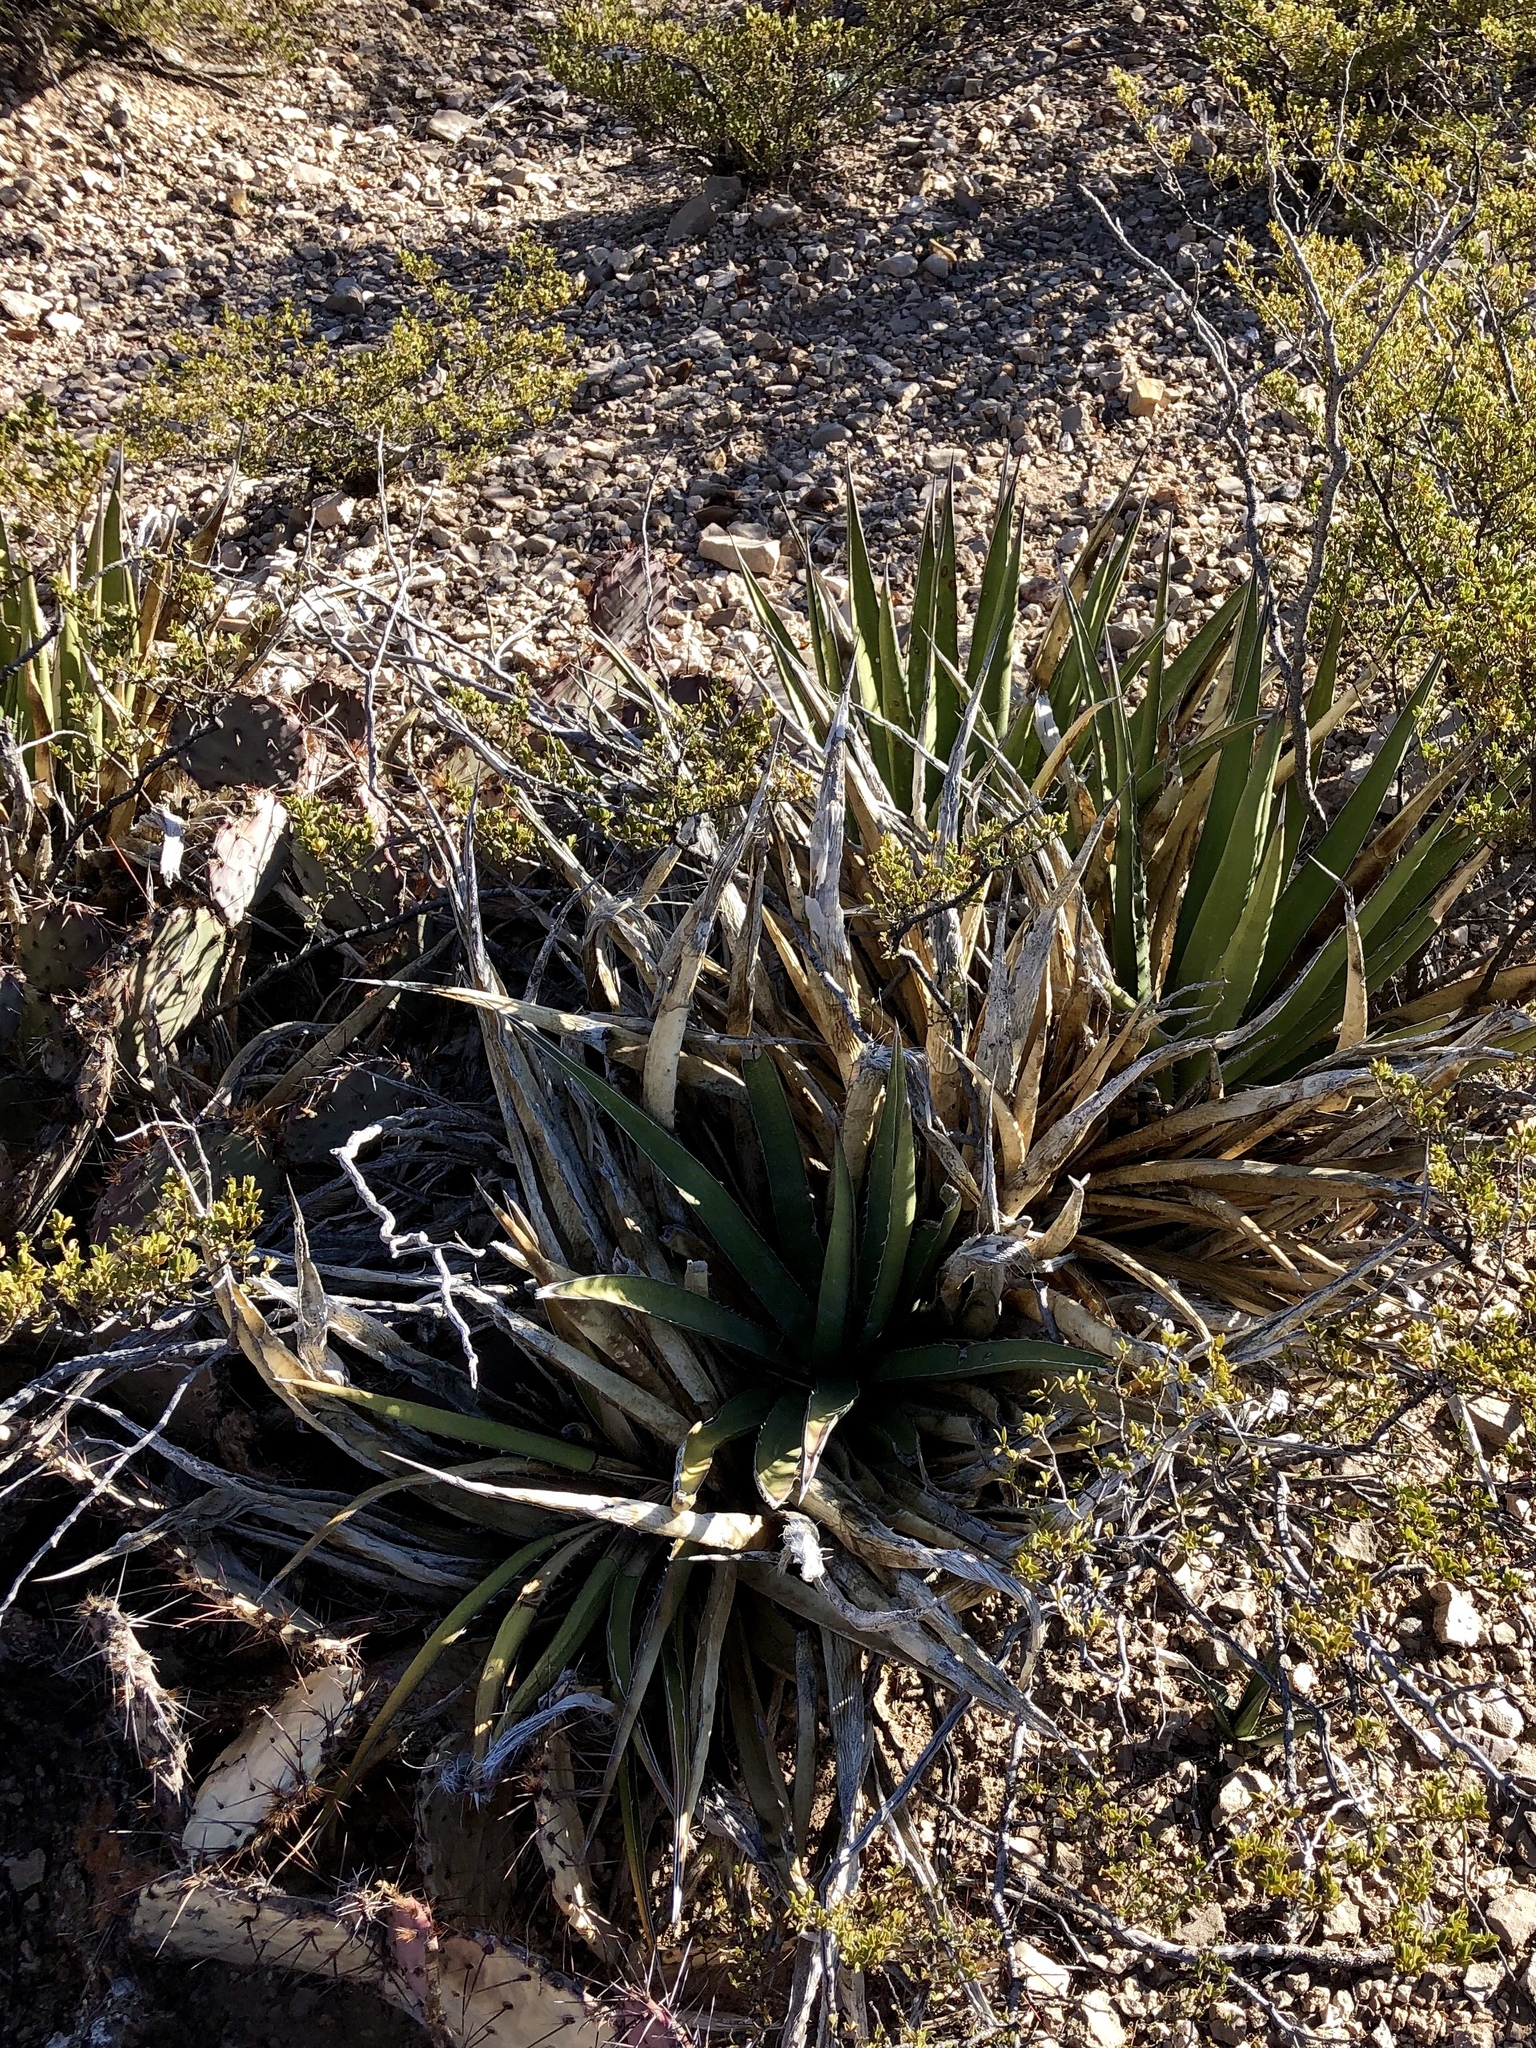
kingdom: Plantae
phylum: Tracheophyta
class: Liliopsida
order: Asparagales
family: Asparagaceae
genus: Agave
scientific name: Agave lechuguilla
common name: Lecheguilla agave
